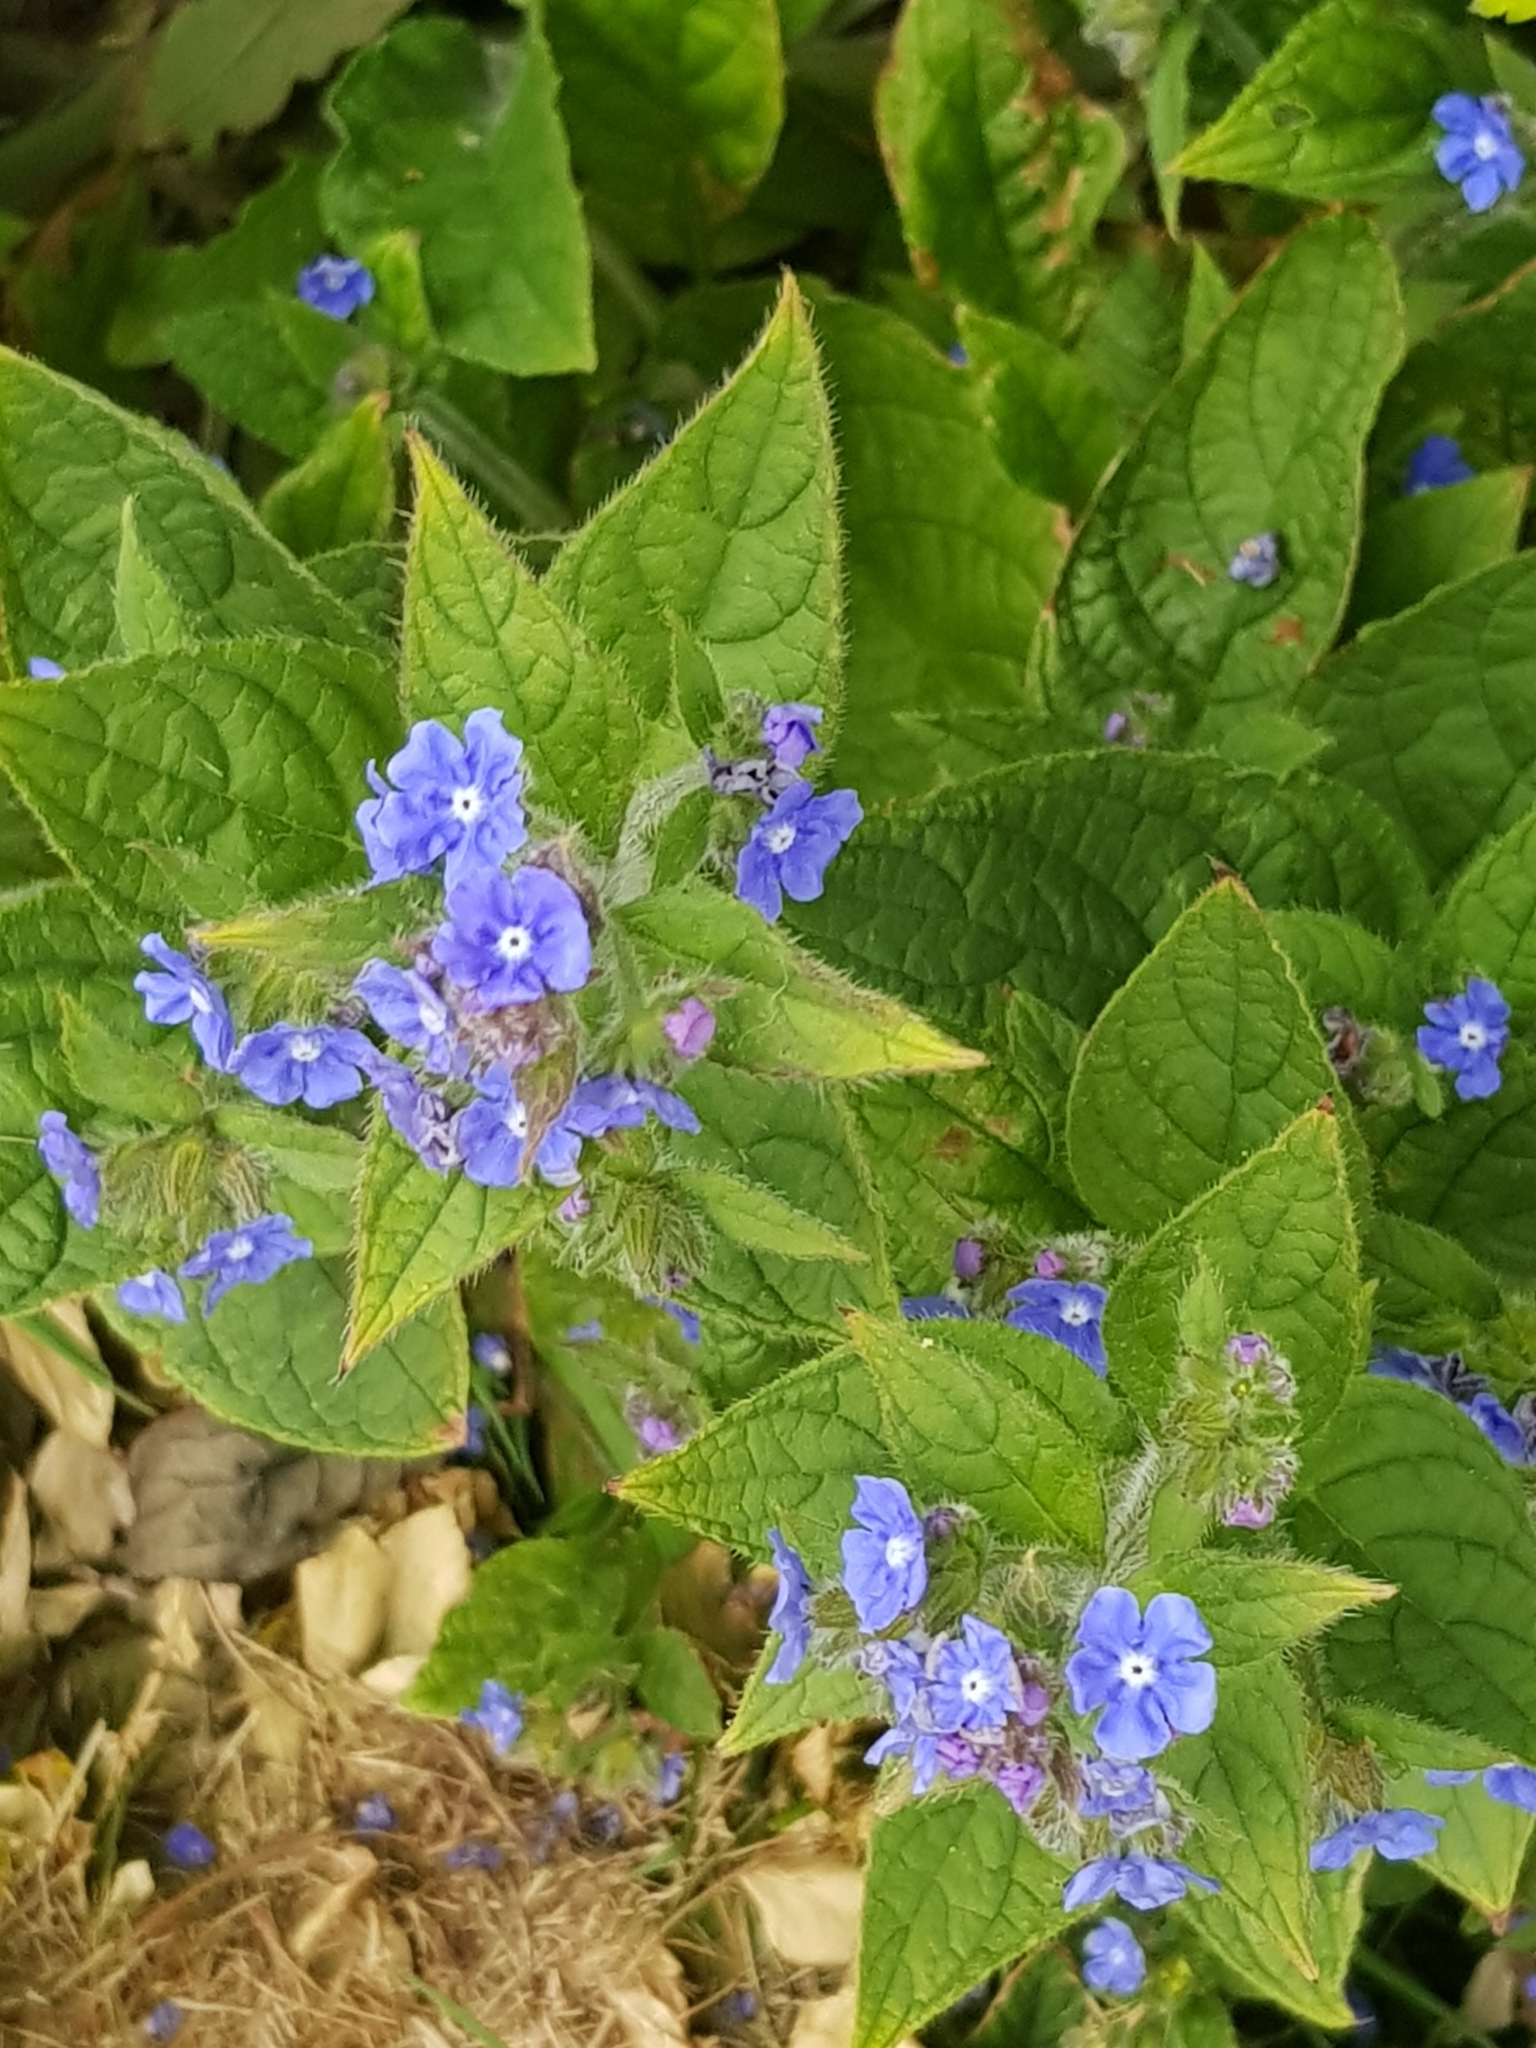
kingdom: Plantae
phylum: Tracheophyta
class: Magnoliopsida
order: Boraginales
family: Boraginaceae
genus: Pentaglottis
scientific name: Pentaglottis sempervirens
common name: Green alkanet
